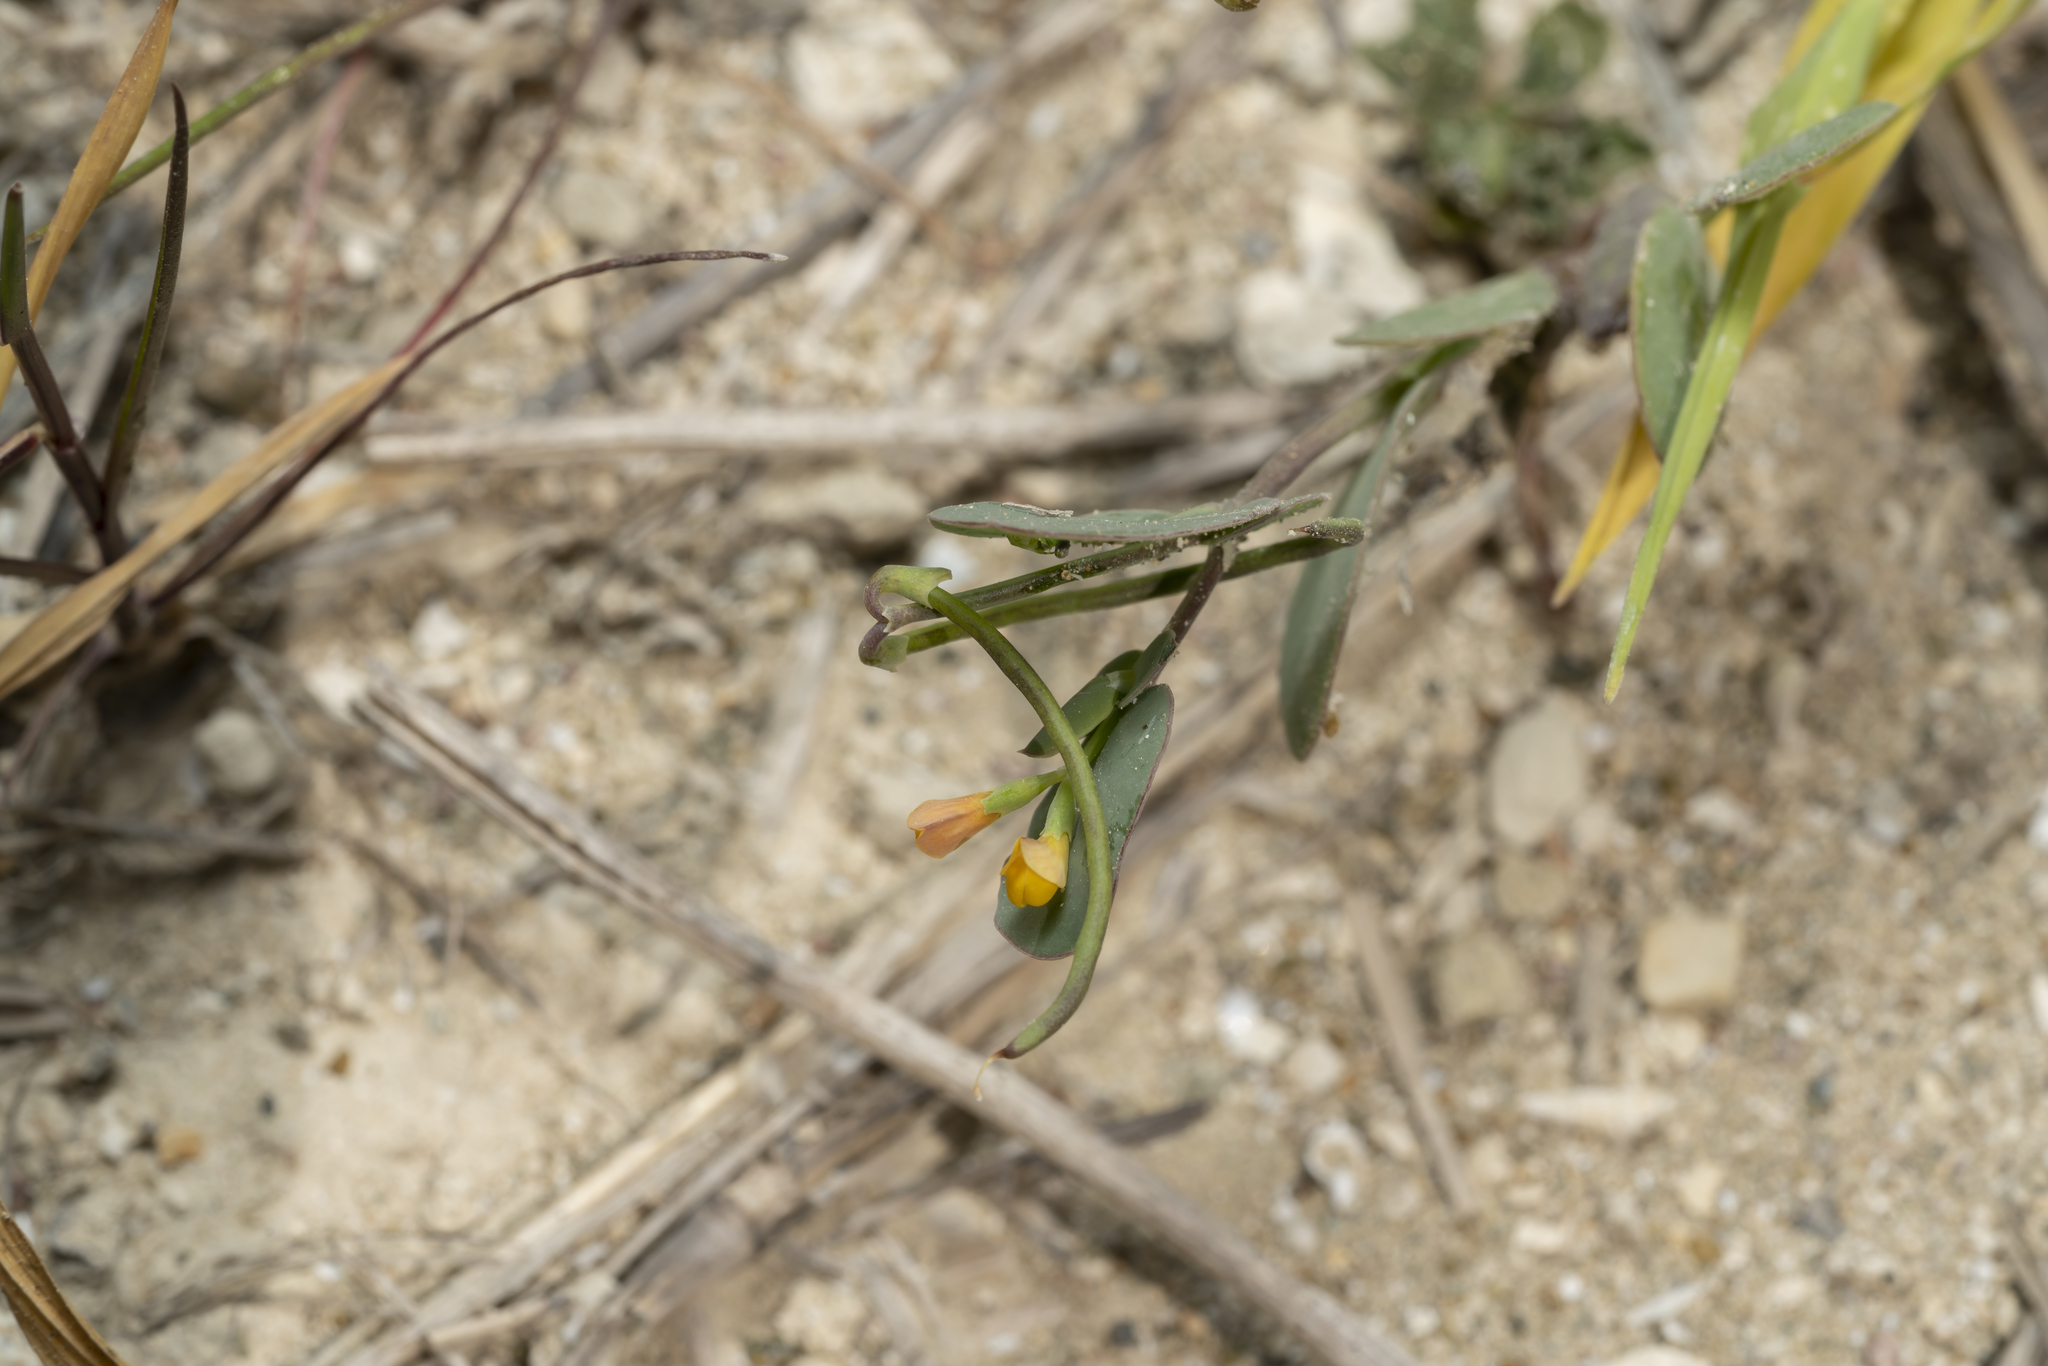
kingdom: Plantae
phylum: Tracheophyta
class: Magnoliopsida
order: Fabales
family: Fabaceae
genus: Coronilla
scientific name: Coronilla scorpioides
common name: Annual scorpion-vetch
